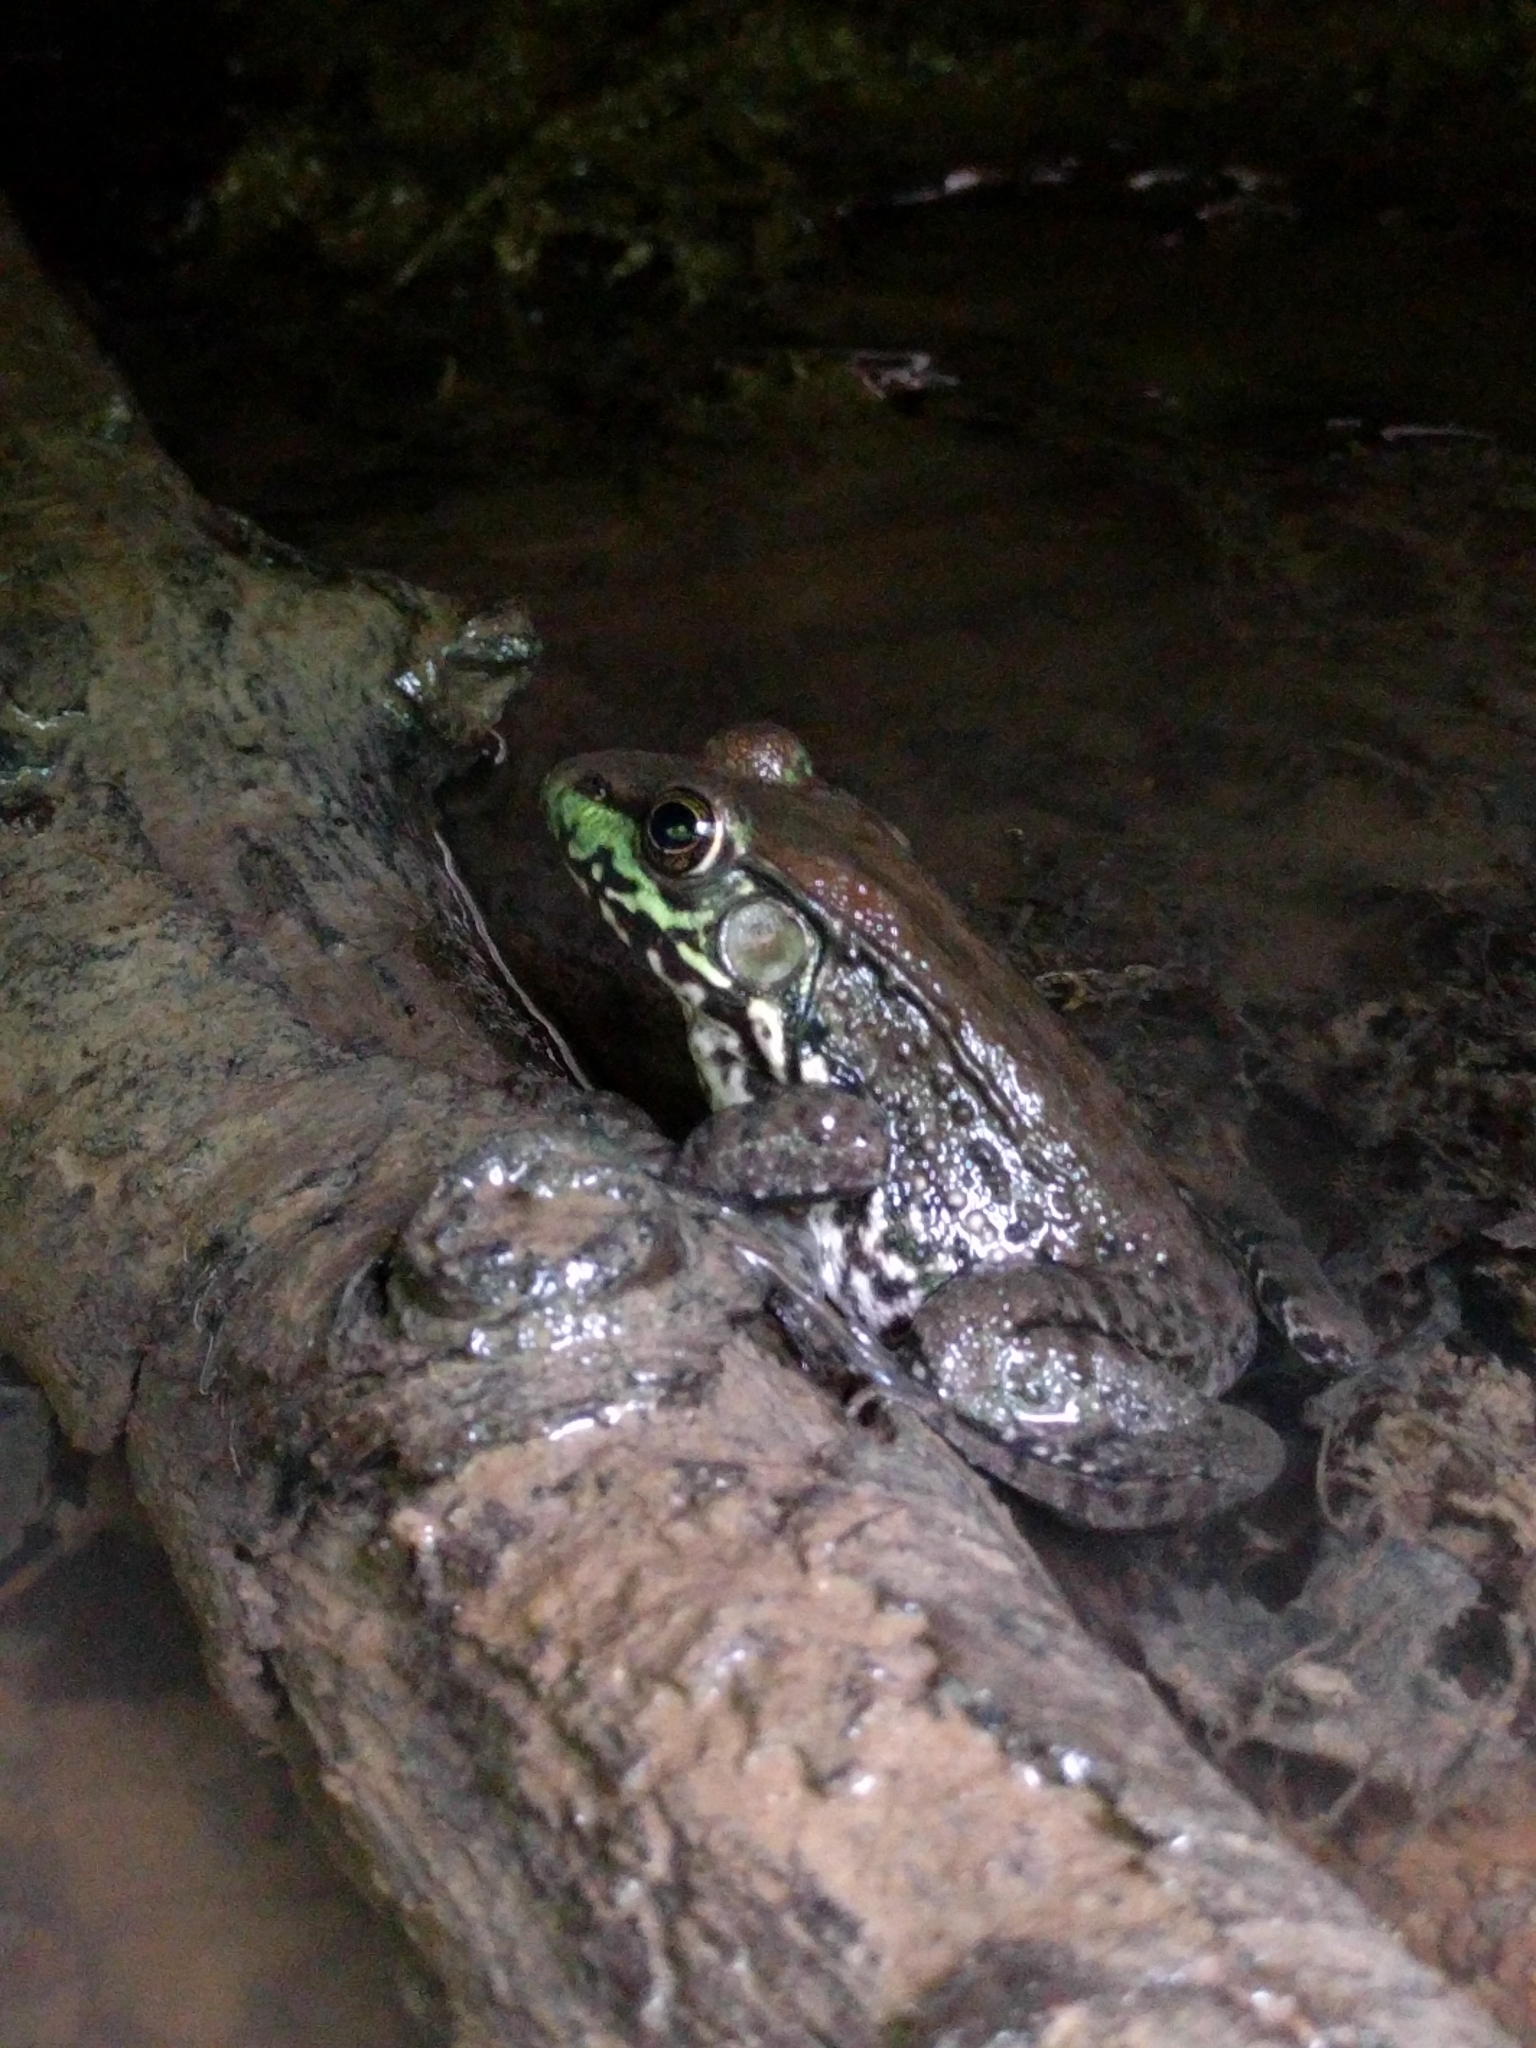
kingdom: Animalia
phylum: Chordata
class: Amphibia
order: Anura
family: Ranidae
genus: Lithobates
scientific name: Lithobates clamitans
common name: Green frog
